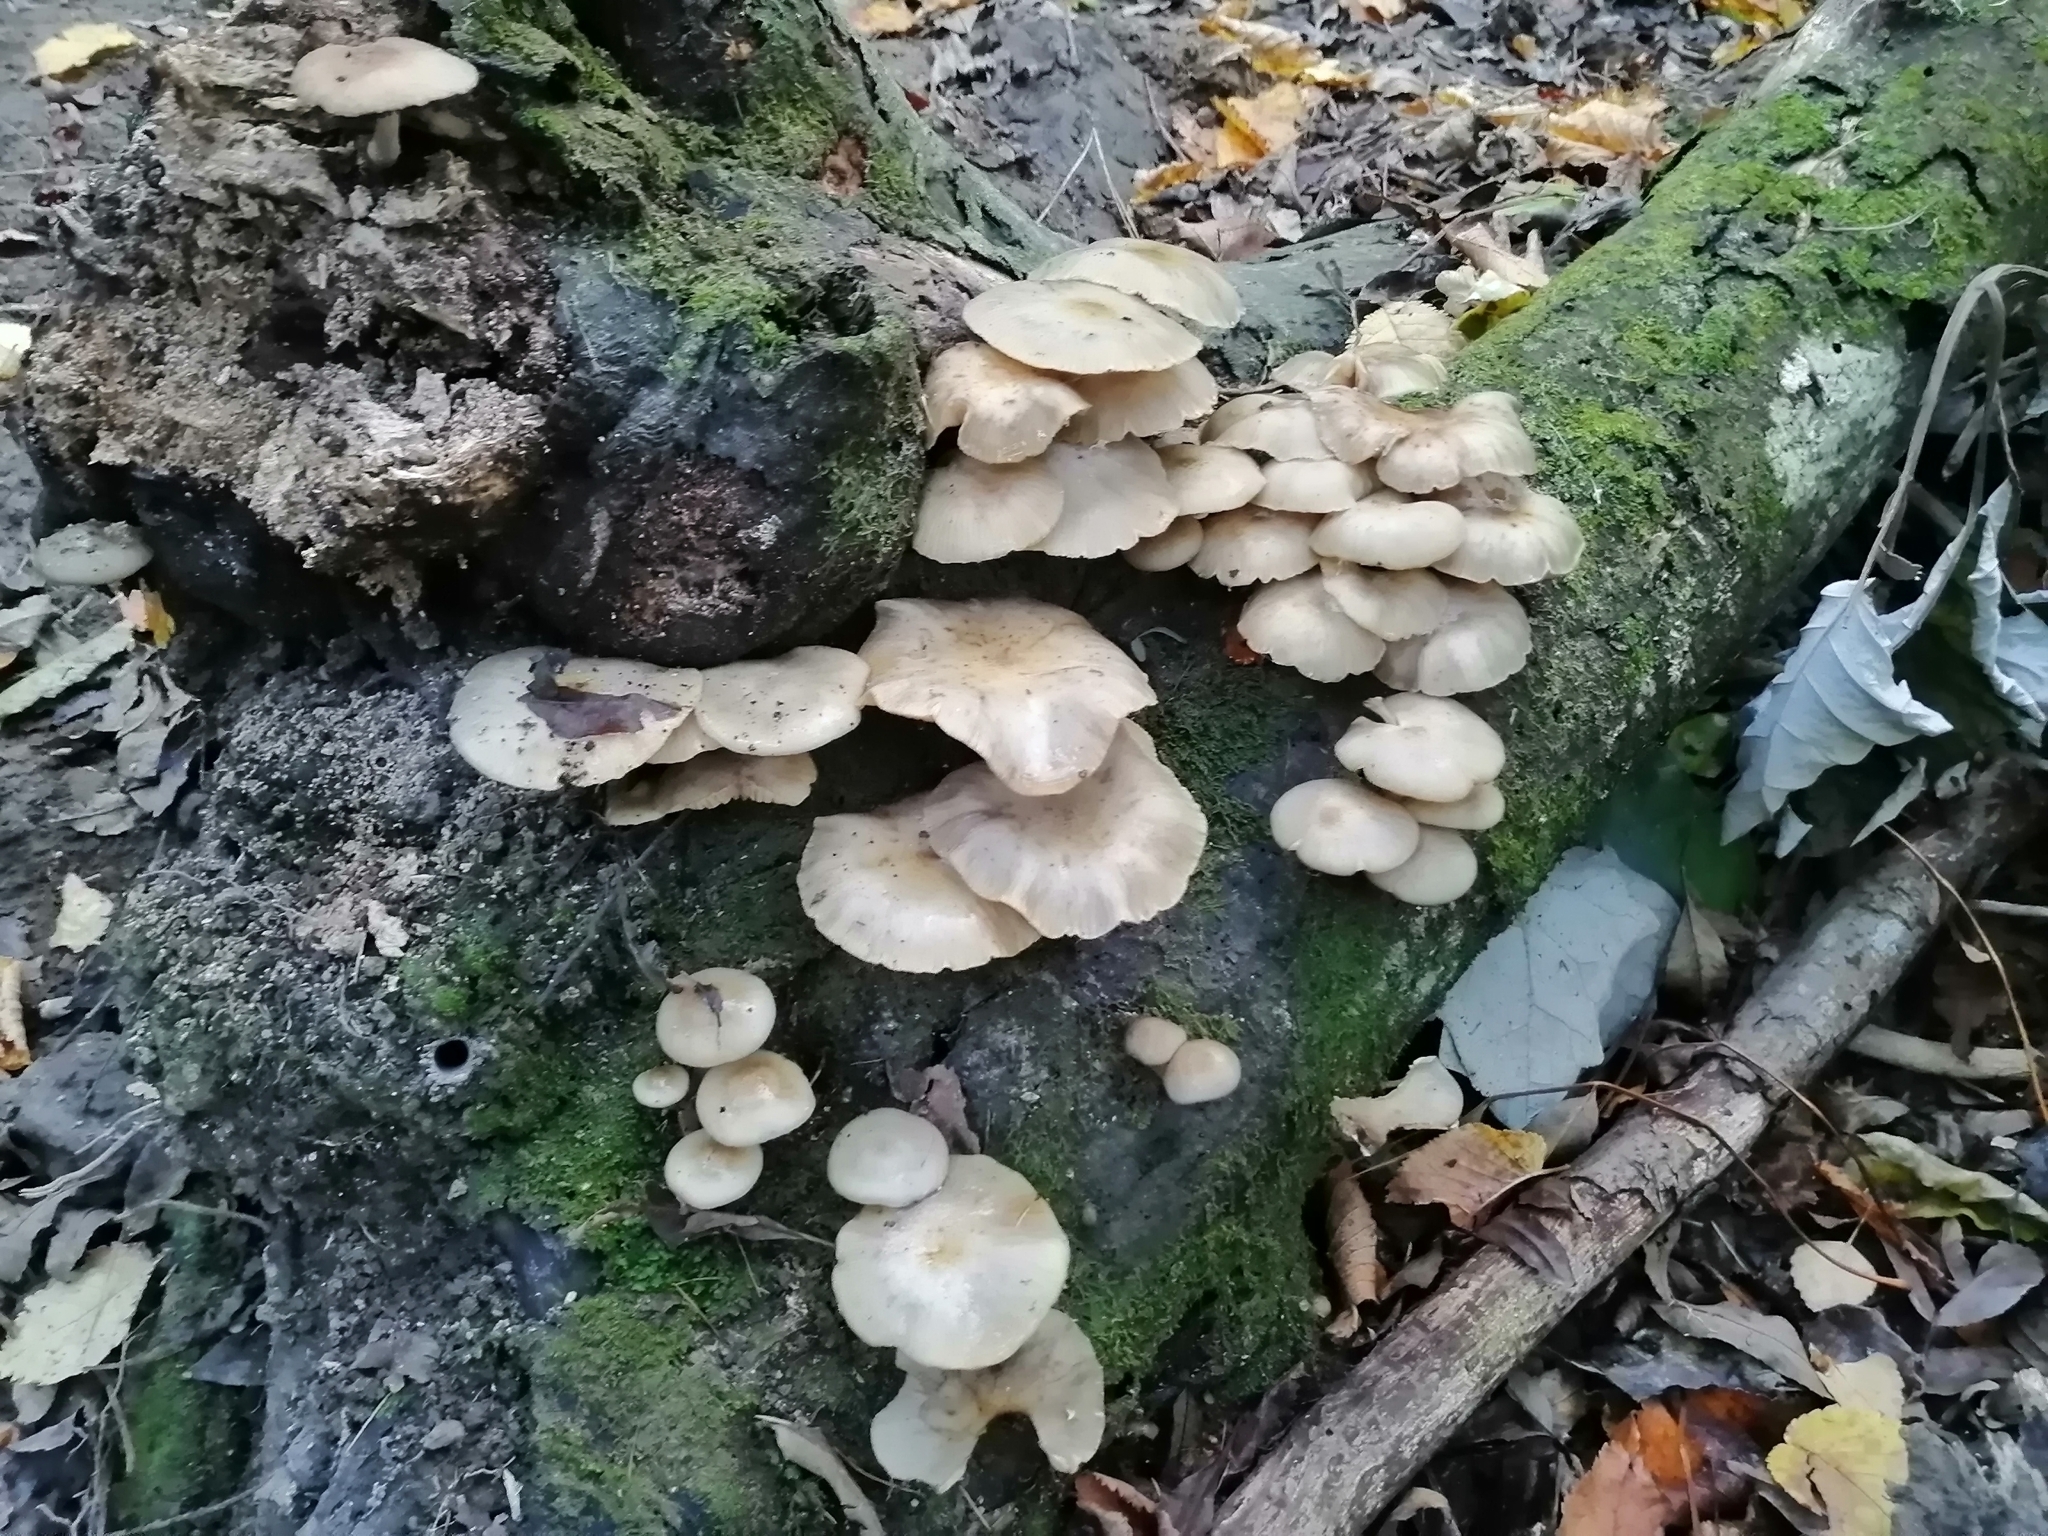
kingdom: Fungi
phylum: Basidiomycota
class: Agaricomycetes
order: Agaricales
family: Physalacriaceae
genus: Armillaria
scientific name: Armillaria novae-zelandiae
